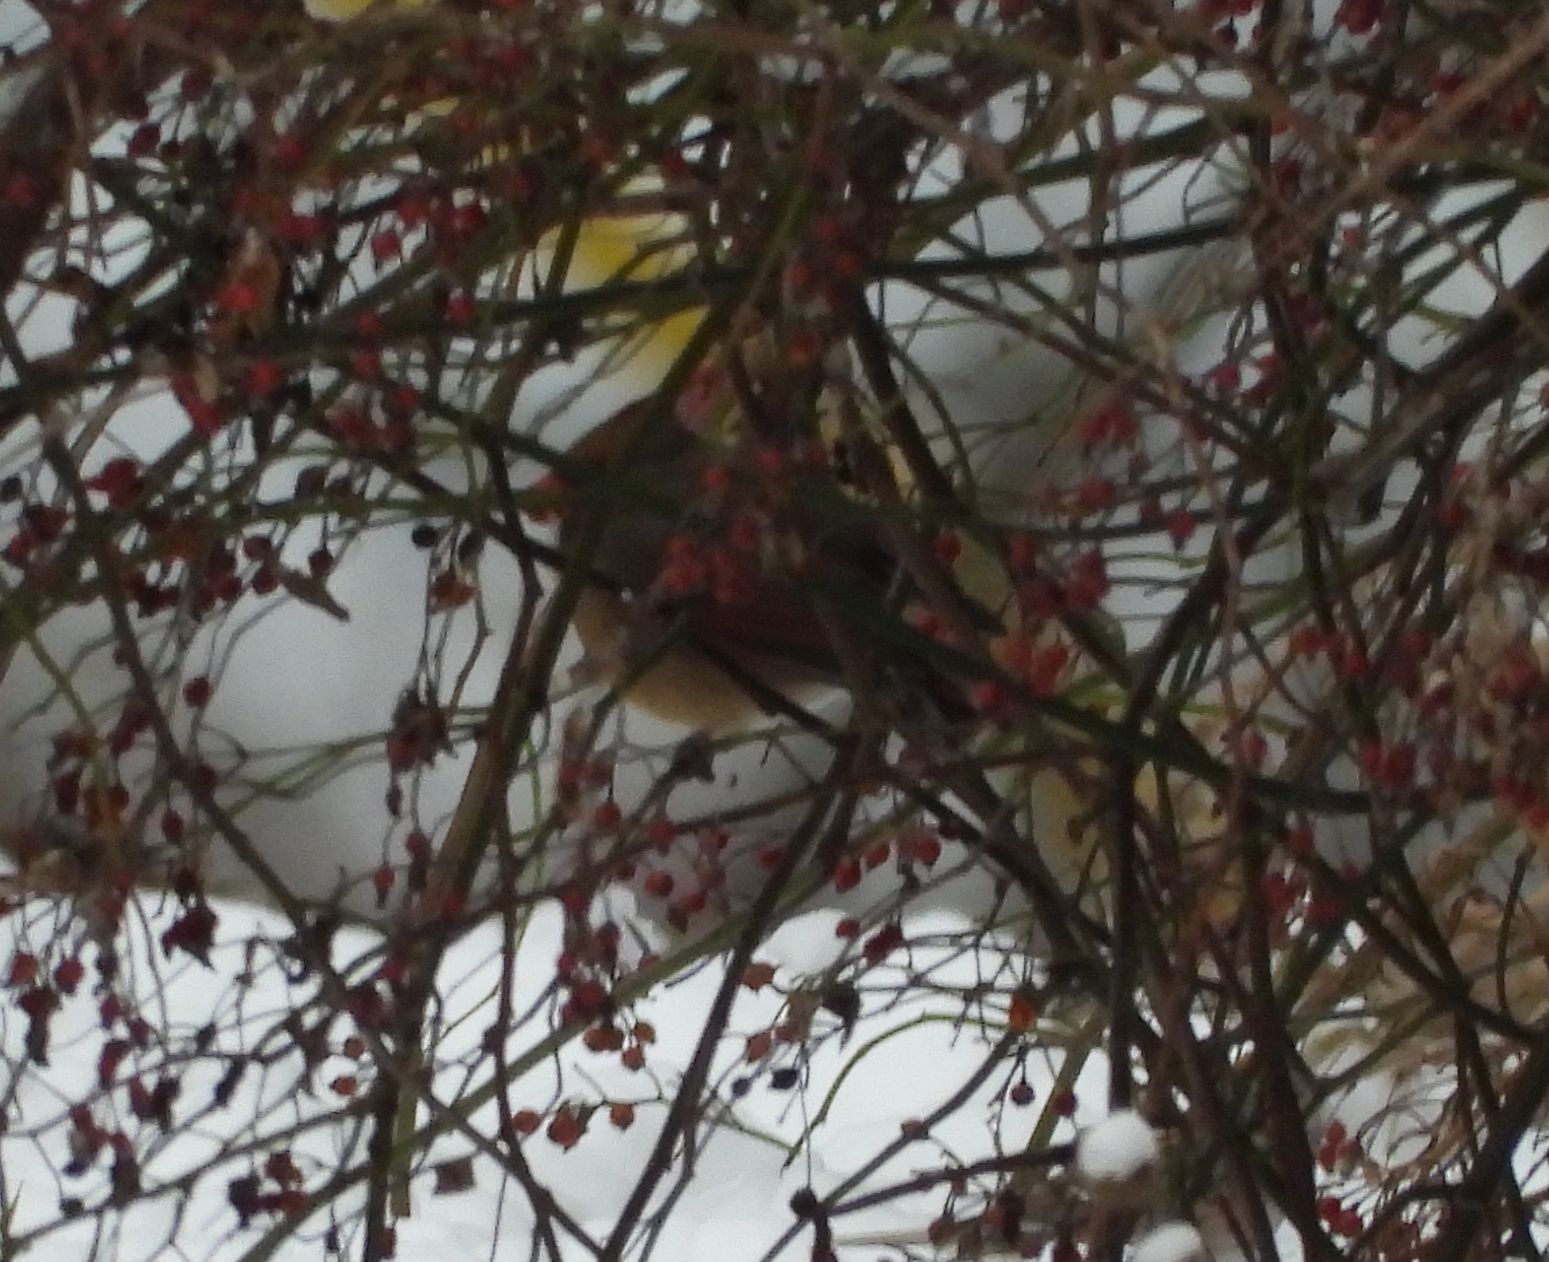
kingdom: Animalia
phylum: Chordata
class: Aves
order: Passeriformes
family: Cardinalidae
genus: Cardinalis
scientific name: Cardinalis cardinalis
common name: Northern cardinal
